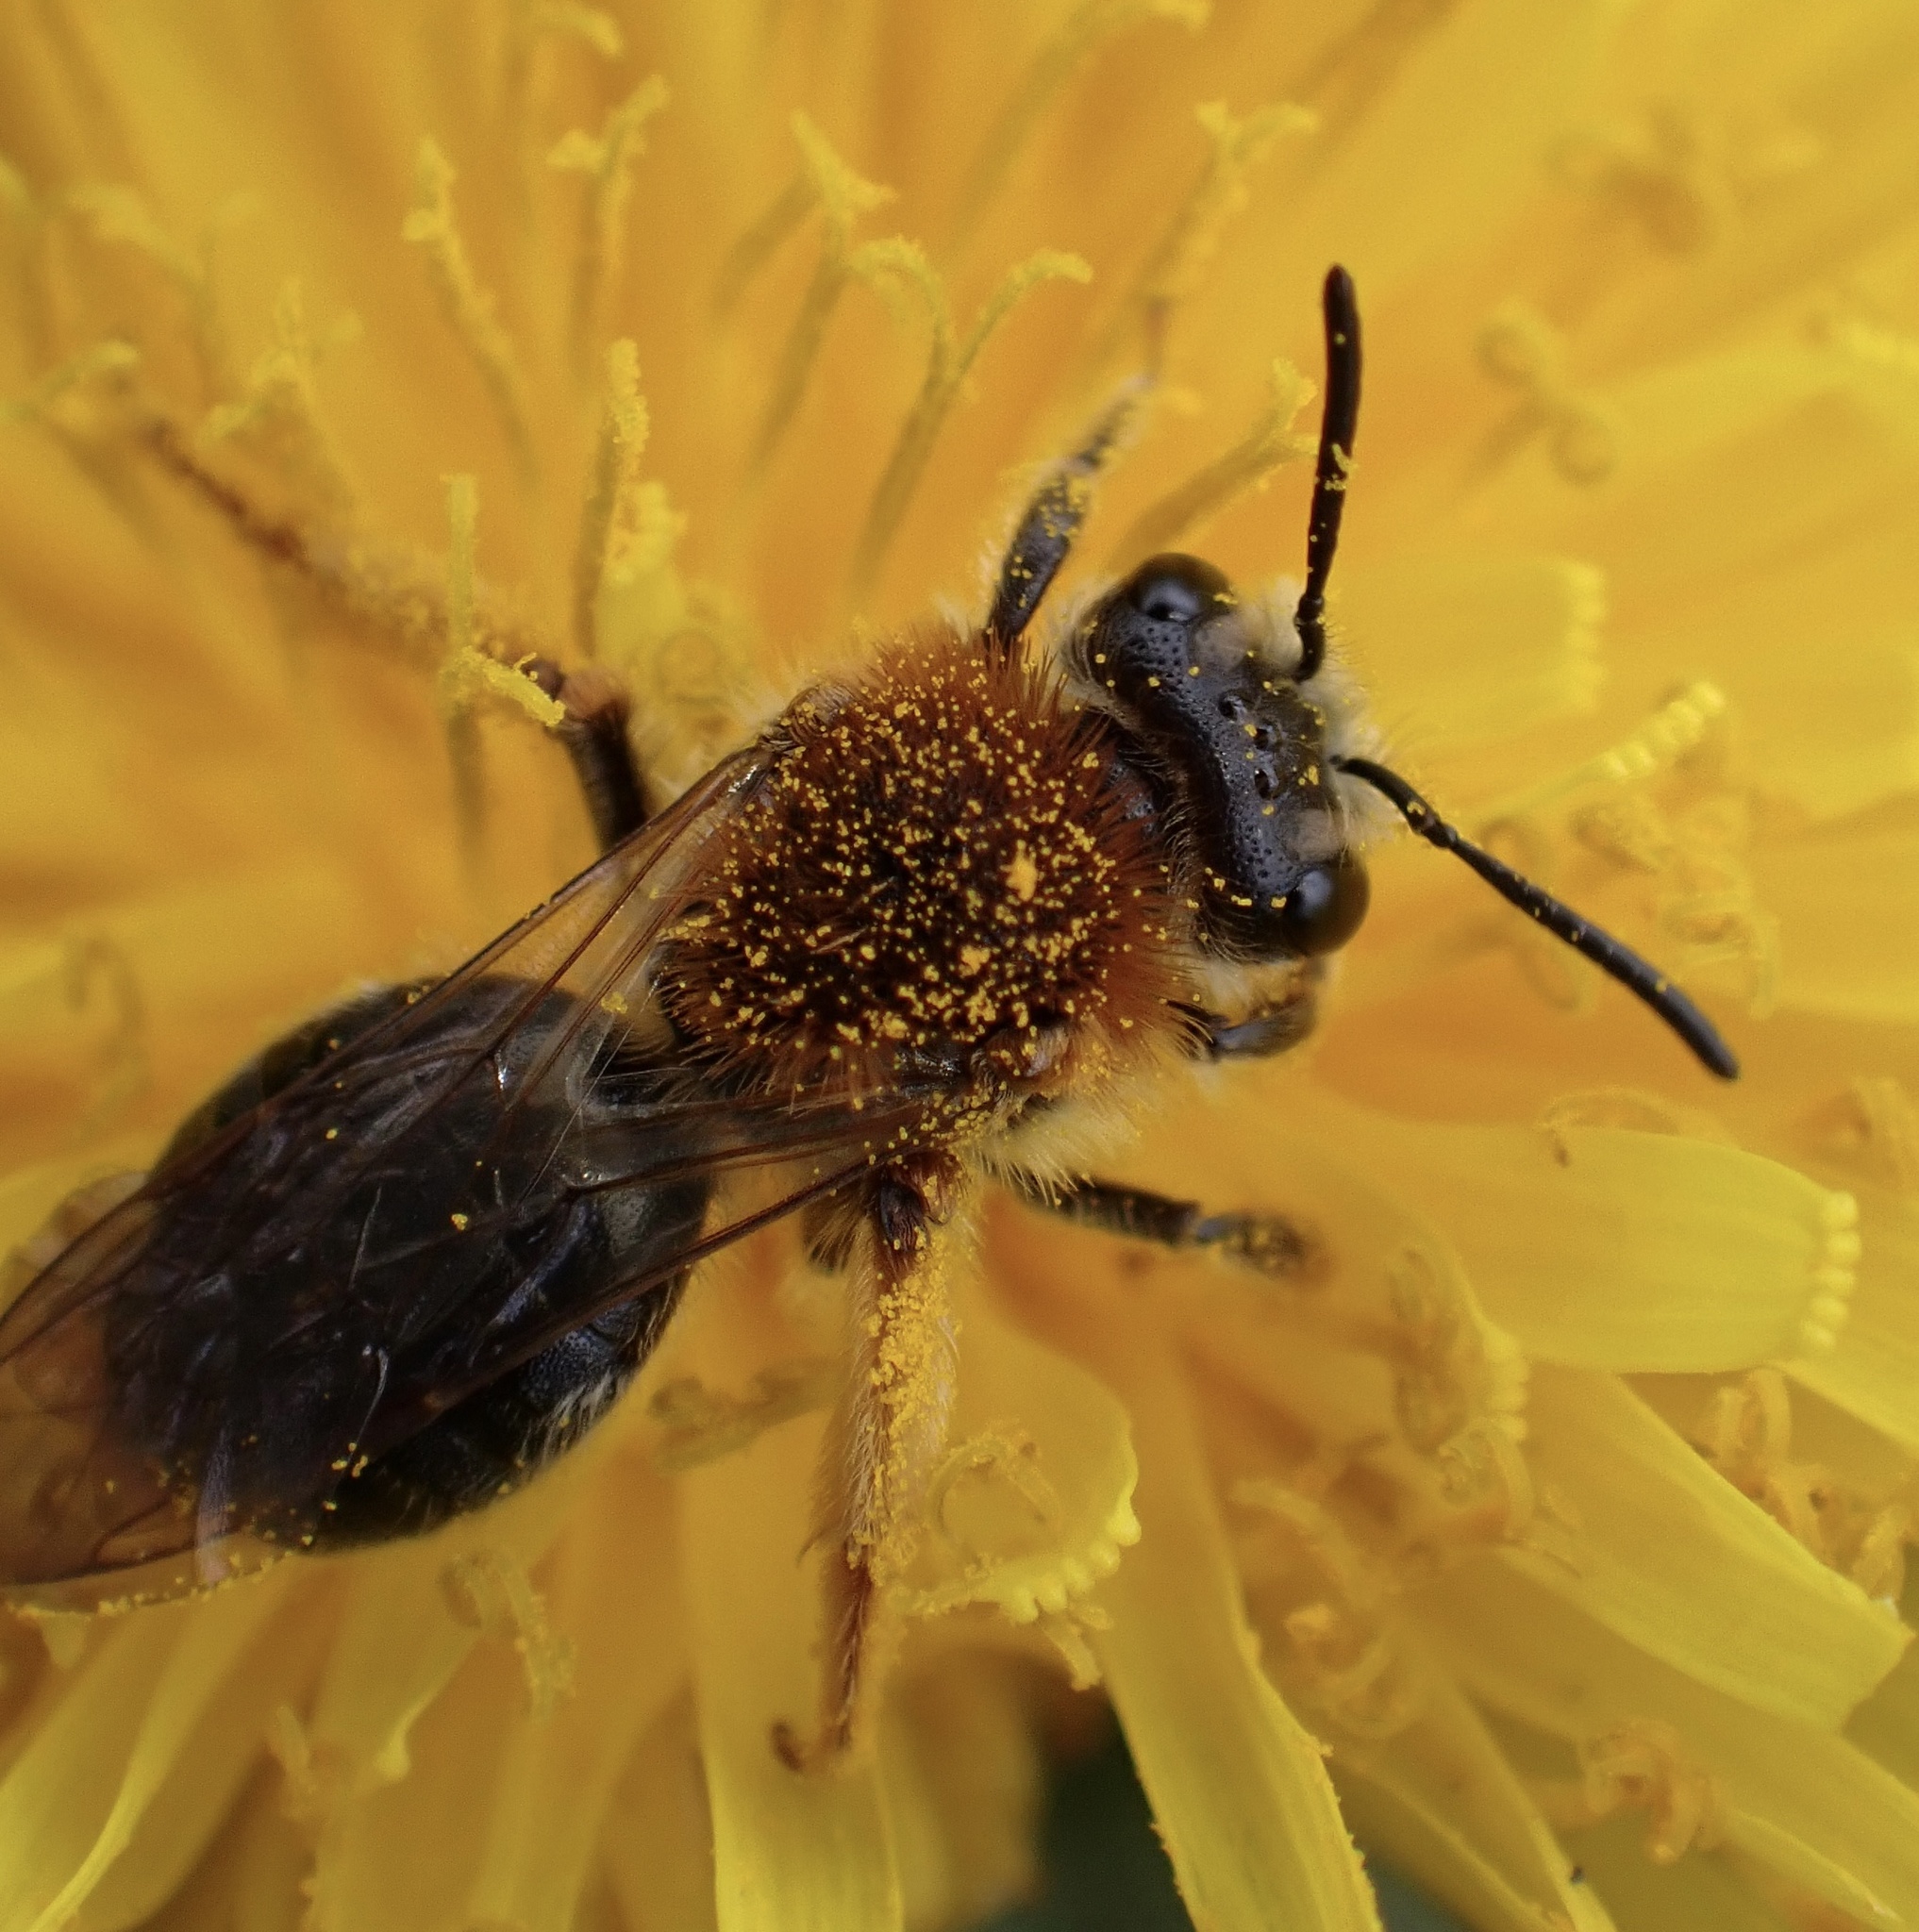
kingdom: Animalia
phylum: Arthropoda
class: Insecta
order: Hymenoptera
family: Andrenidae
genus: Andrena
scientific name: Andrena haemorrhoa
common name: Early mining bee
